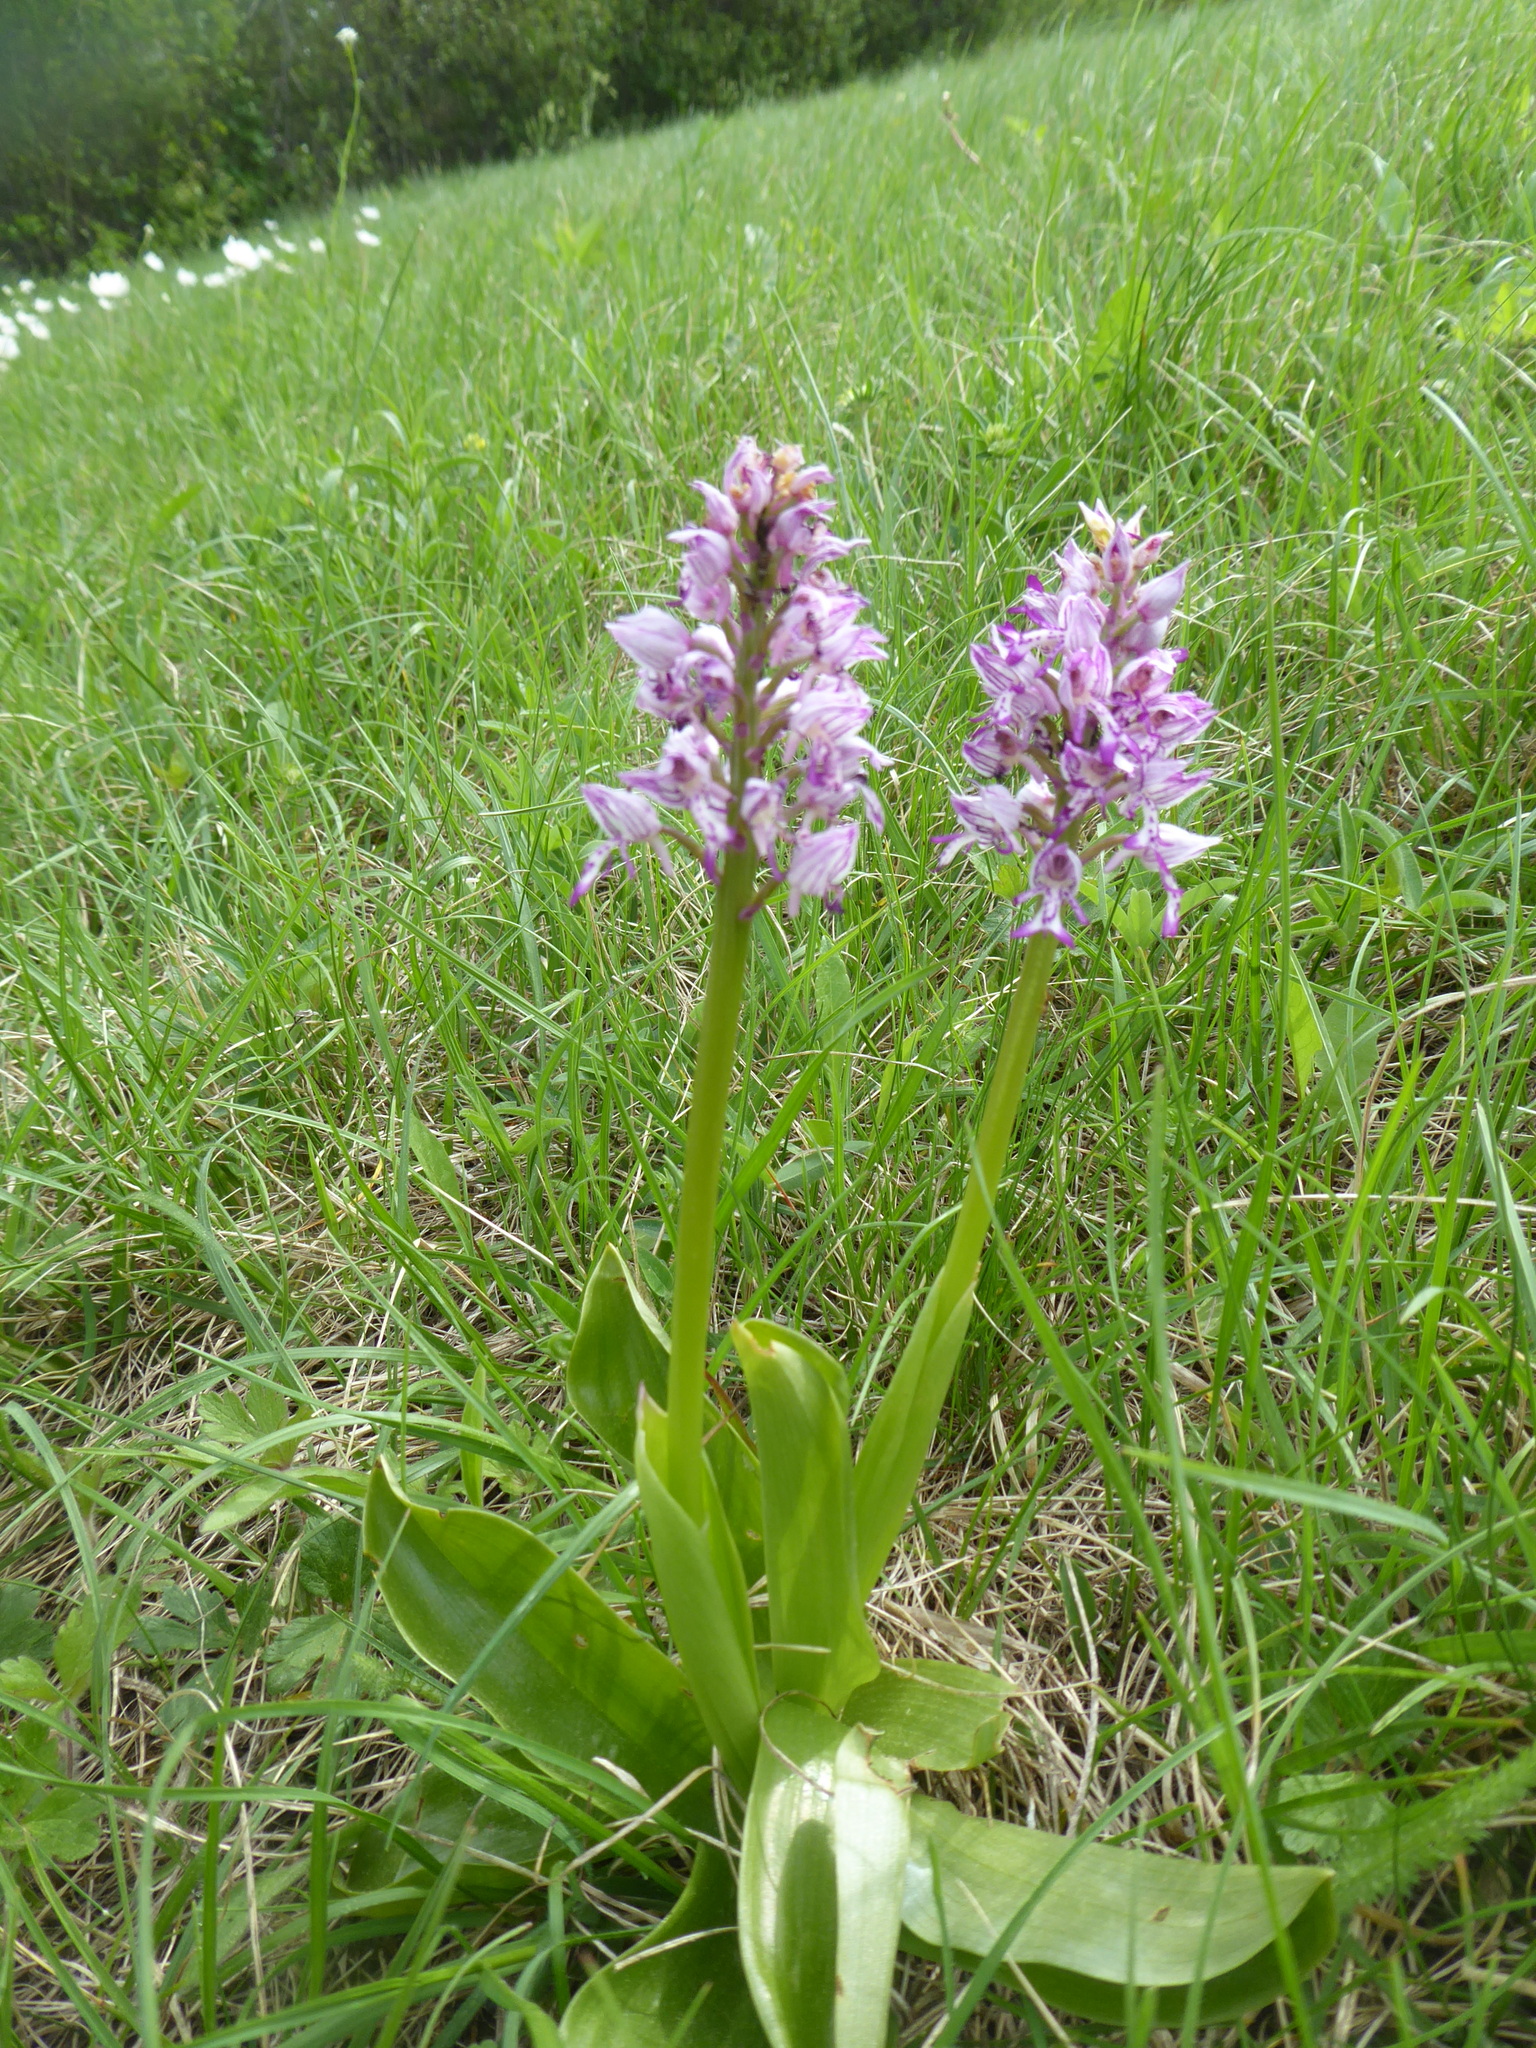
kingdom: Plantae
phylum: Tracheophyta
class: Liliopsida
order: Asparagales
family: Orchidaceae
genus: Orchis
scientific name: Orchis militaris
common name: Military orchid
